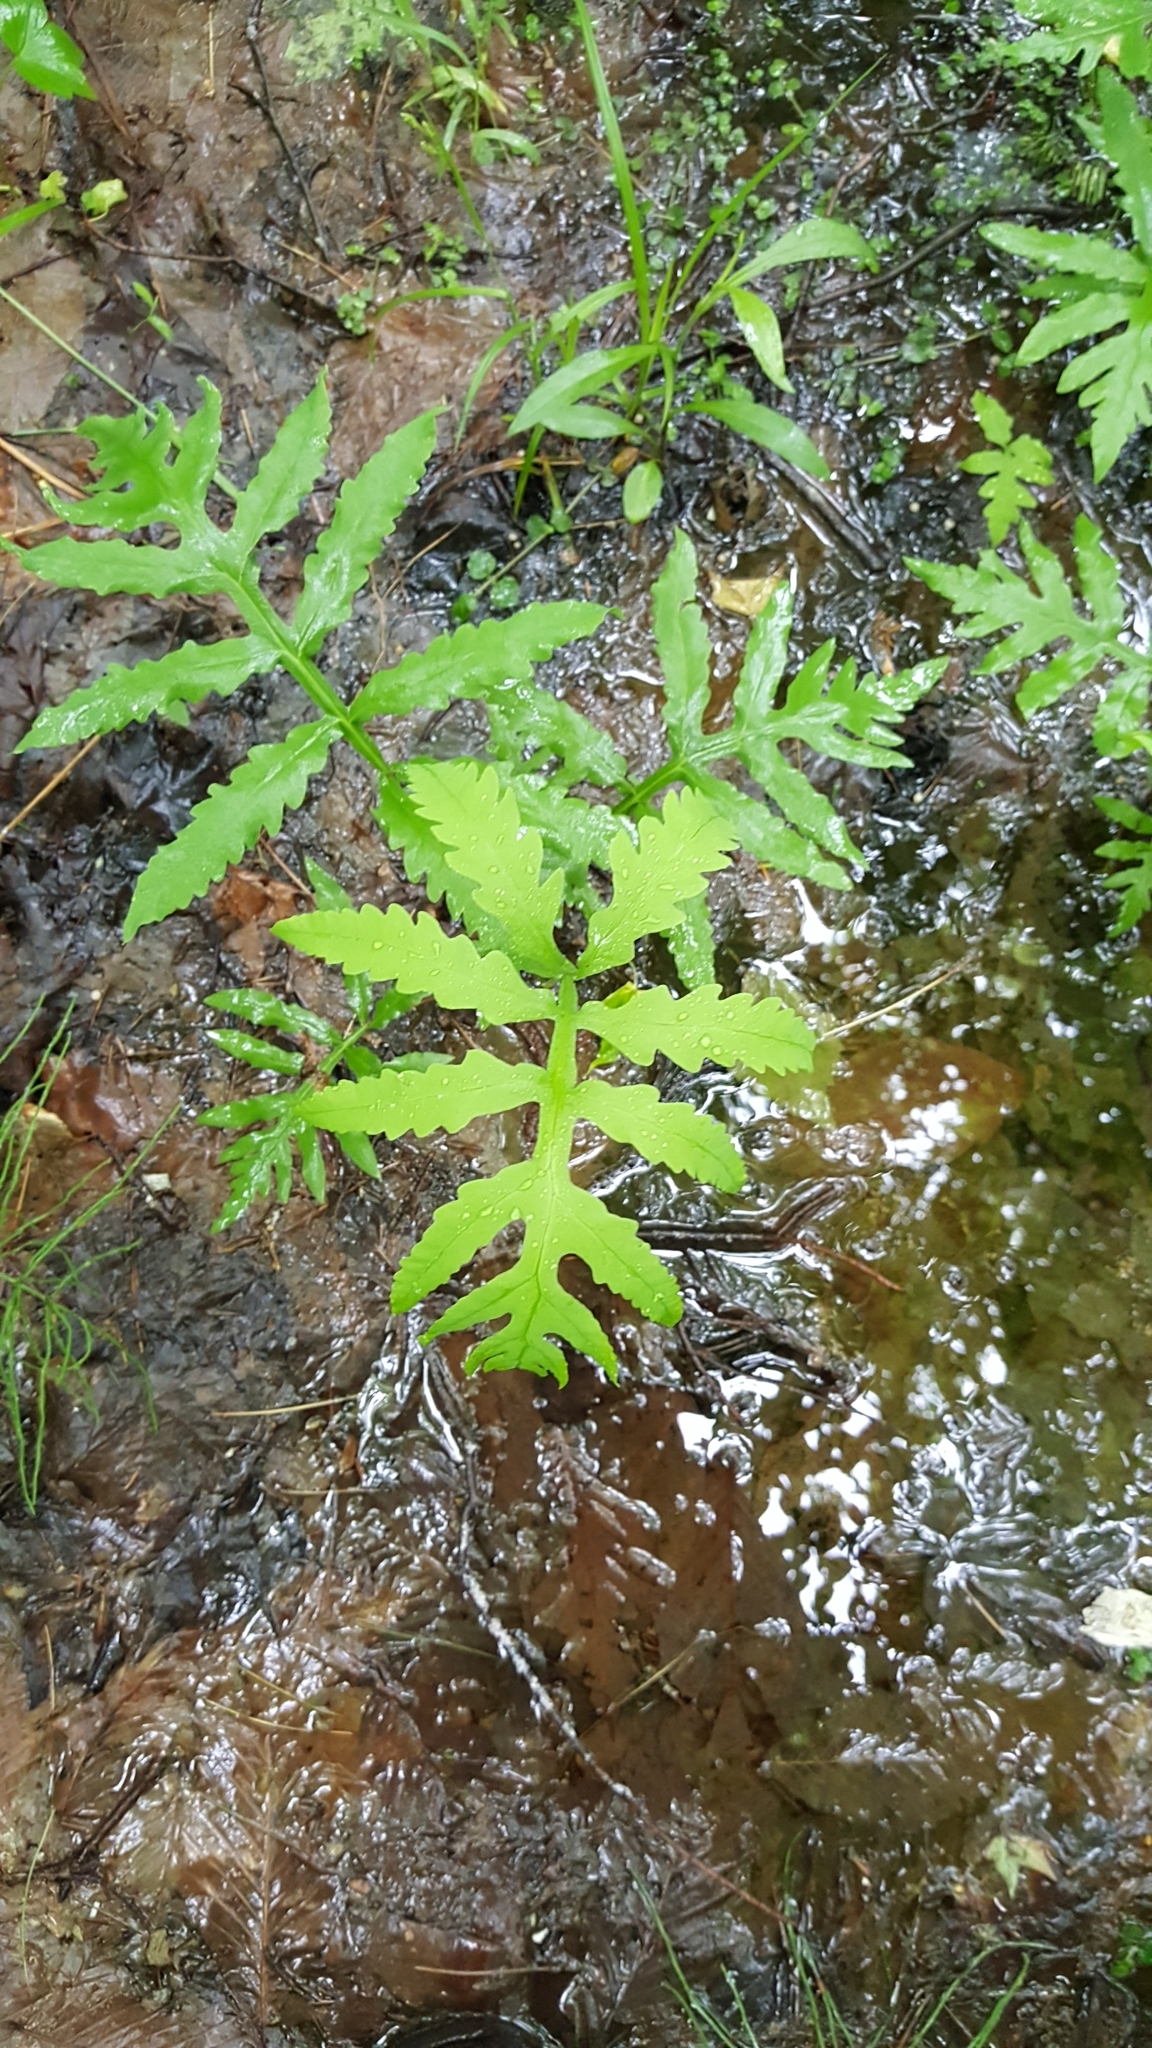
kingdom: Plantae
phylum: Tracheophyta
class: Magnoliopsida
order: Fagales
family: Fagaceae
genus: Fagus
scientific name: Fagus grandifolia
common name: American beech
